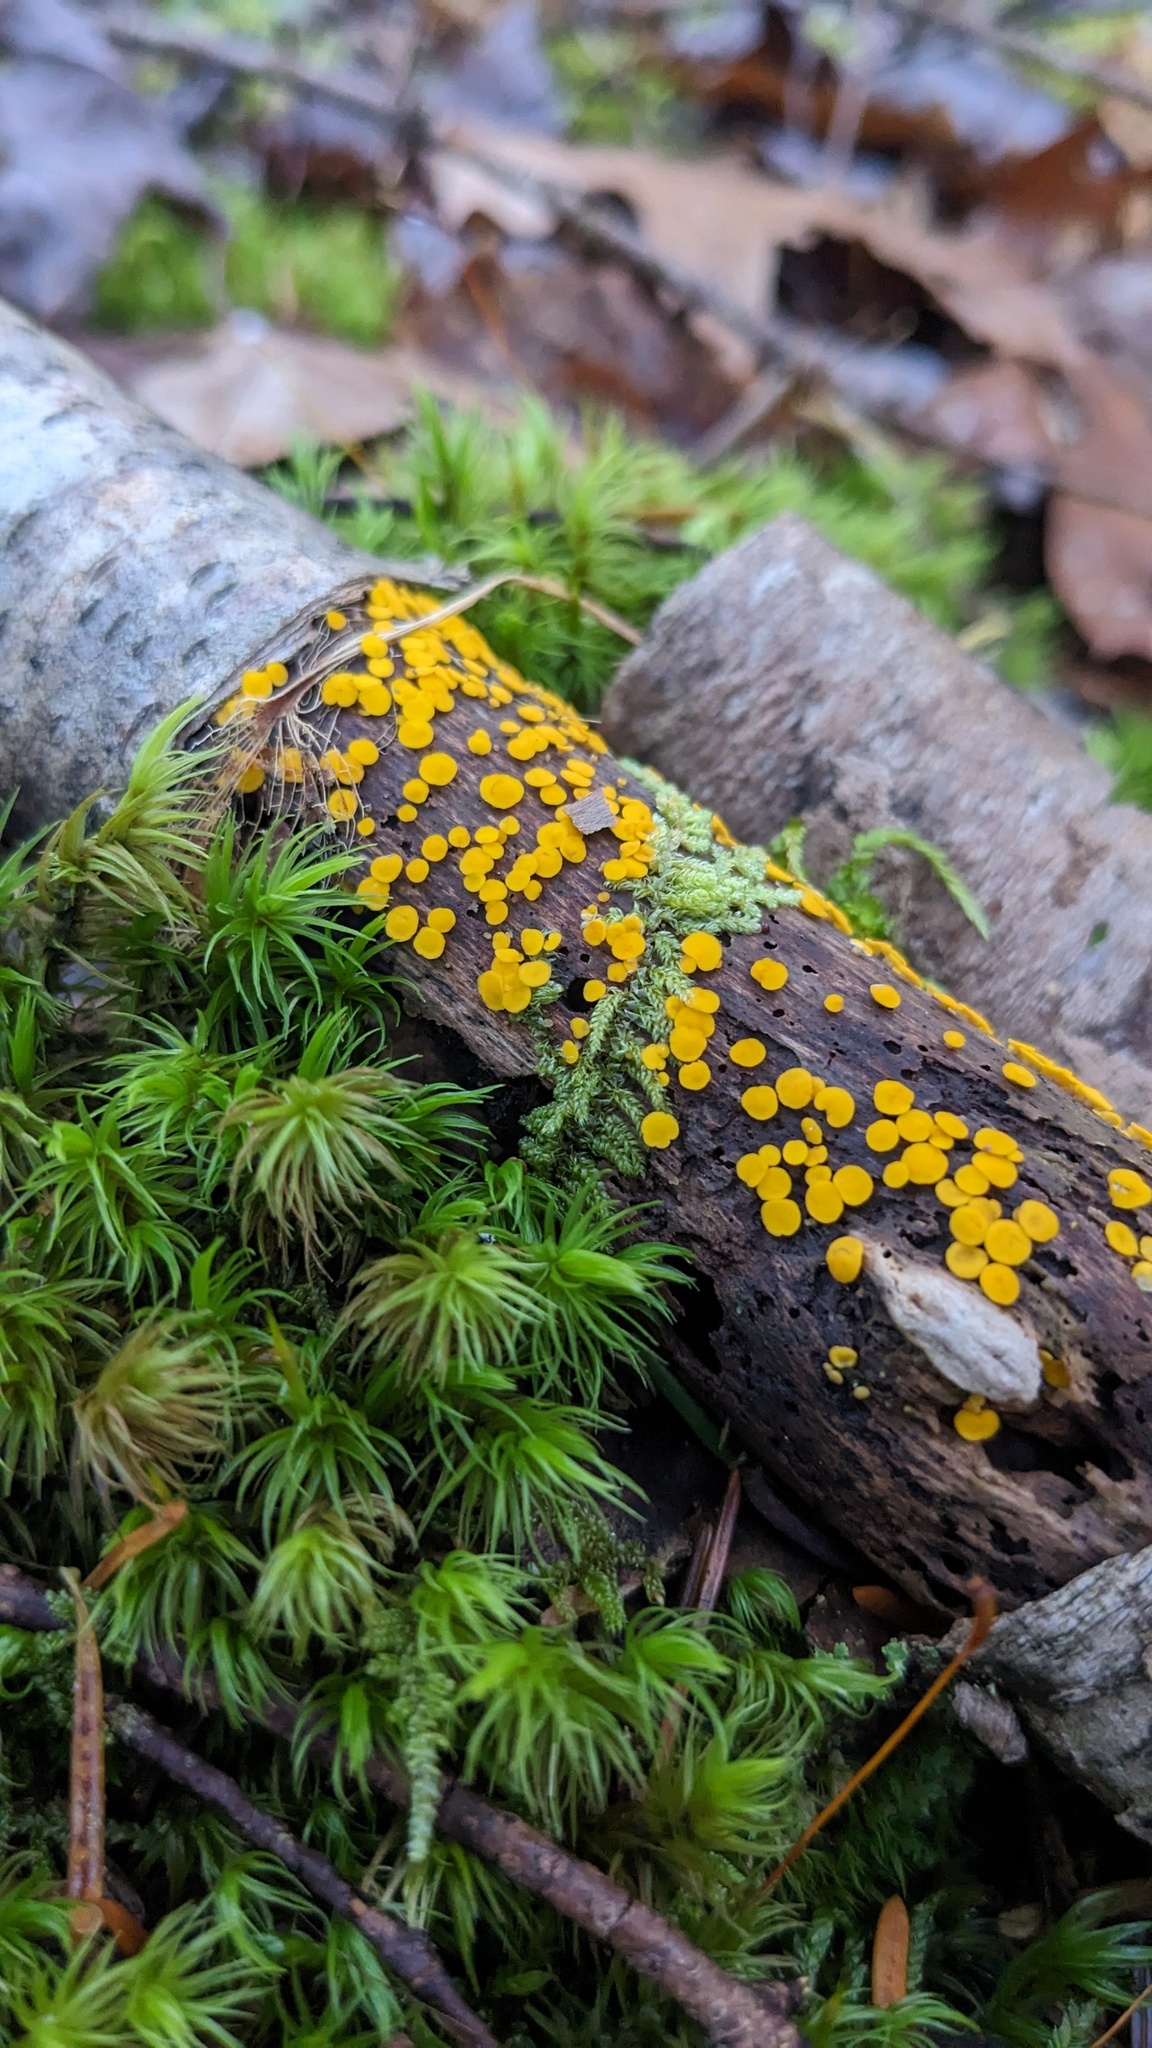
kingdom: Fungi
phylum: Ascomycota
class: Leotiomycetes
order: Helotiales
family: Pezizellaceae
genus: Calycina
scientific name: Calycina citrina
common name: Yellow fairy cups
